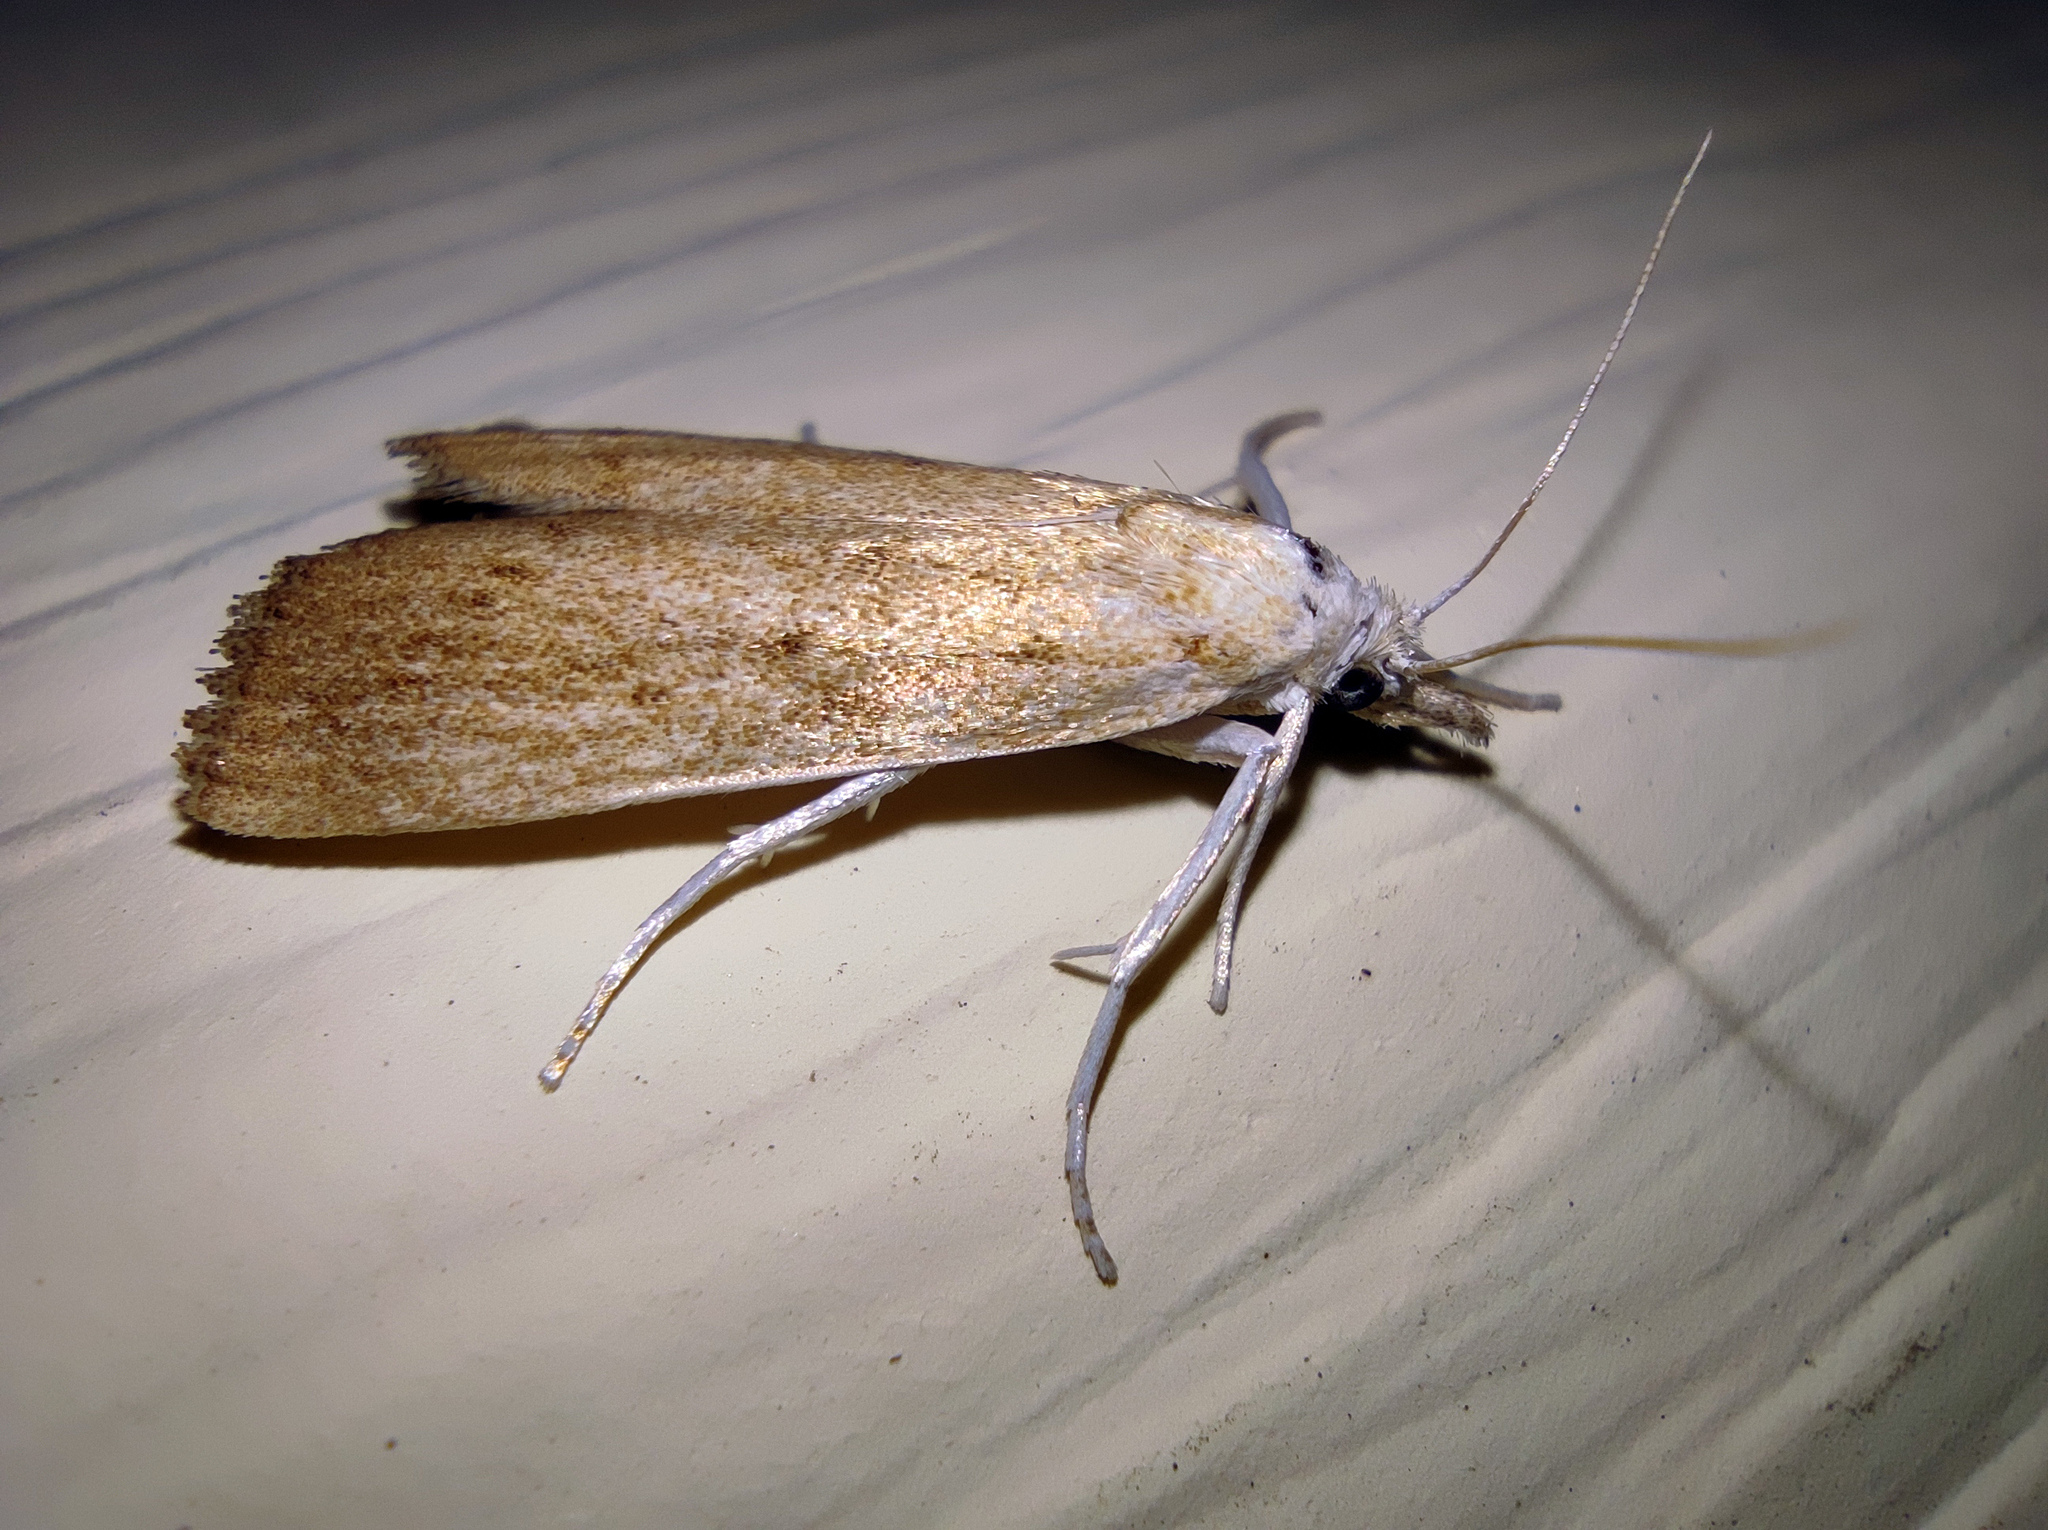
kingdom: Animalia
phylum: Arthropoda
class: Insecta
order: Lepidoptera
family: Crambidae
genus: Calamotropha
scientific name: Calamotropha paludella
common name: Bulrush veneer
